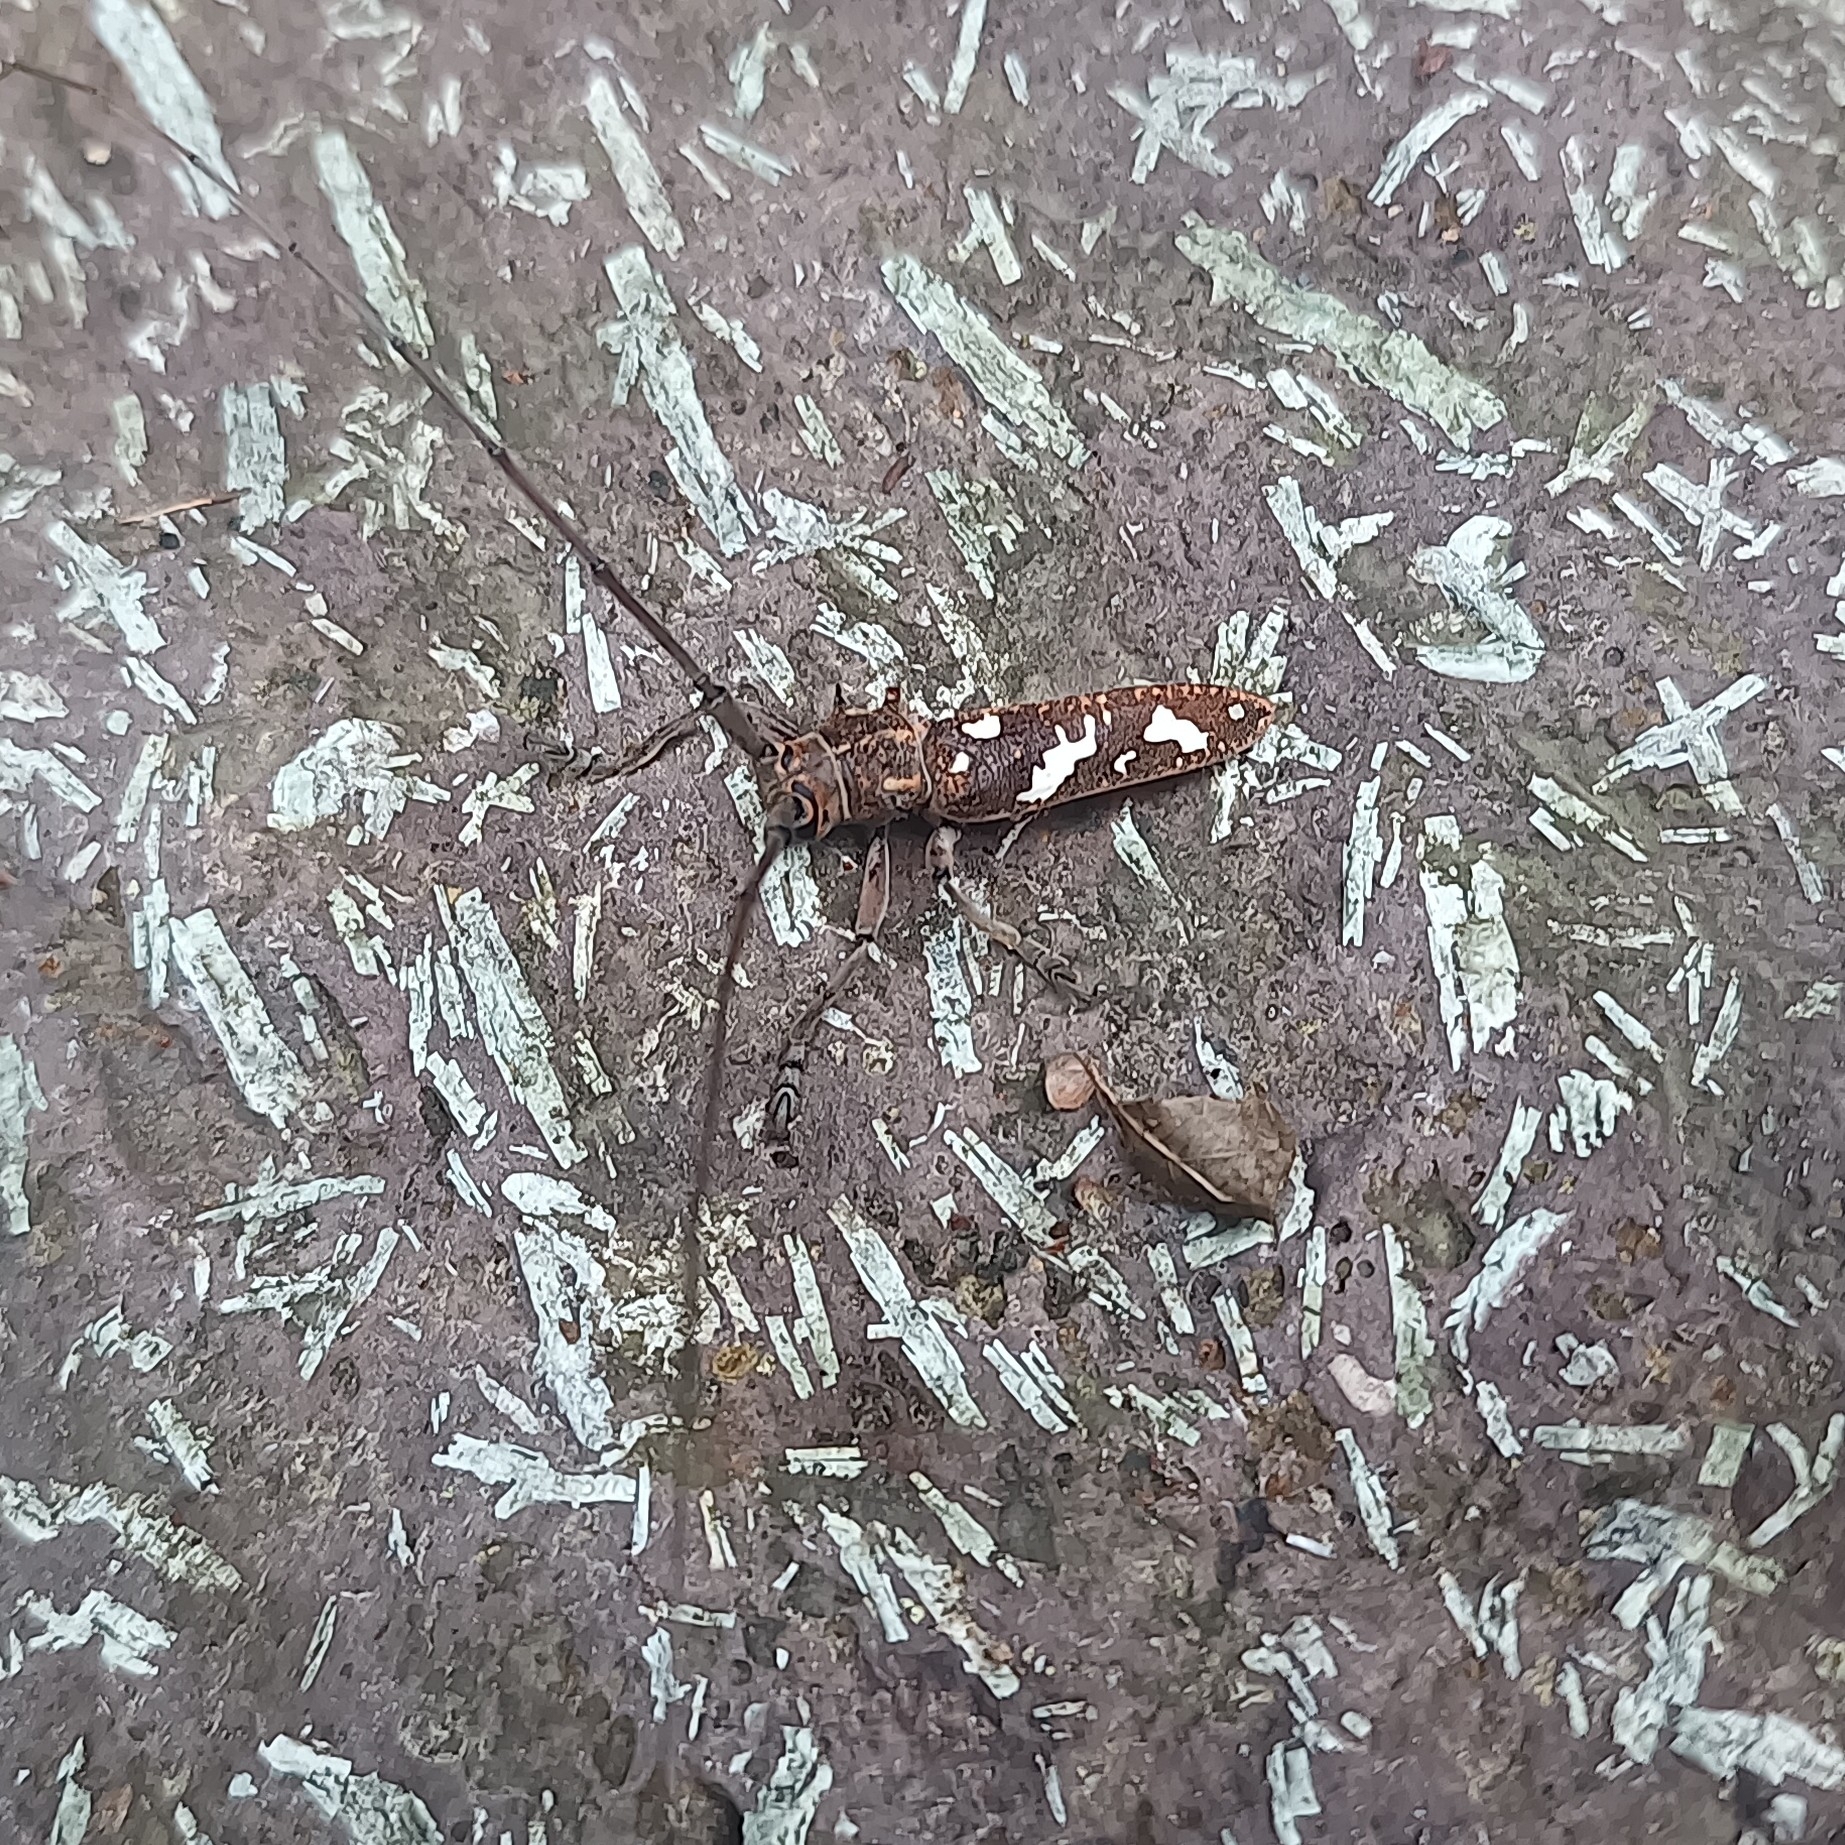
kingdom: Animalia
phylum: Arthropoda
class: Insecta
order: Coleoptera
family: Cerambycidae
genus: Plagiohammus
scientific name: Plagiohammus laceratus
